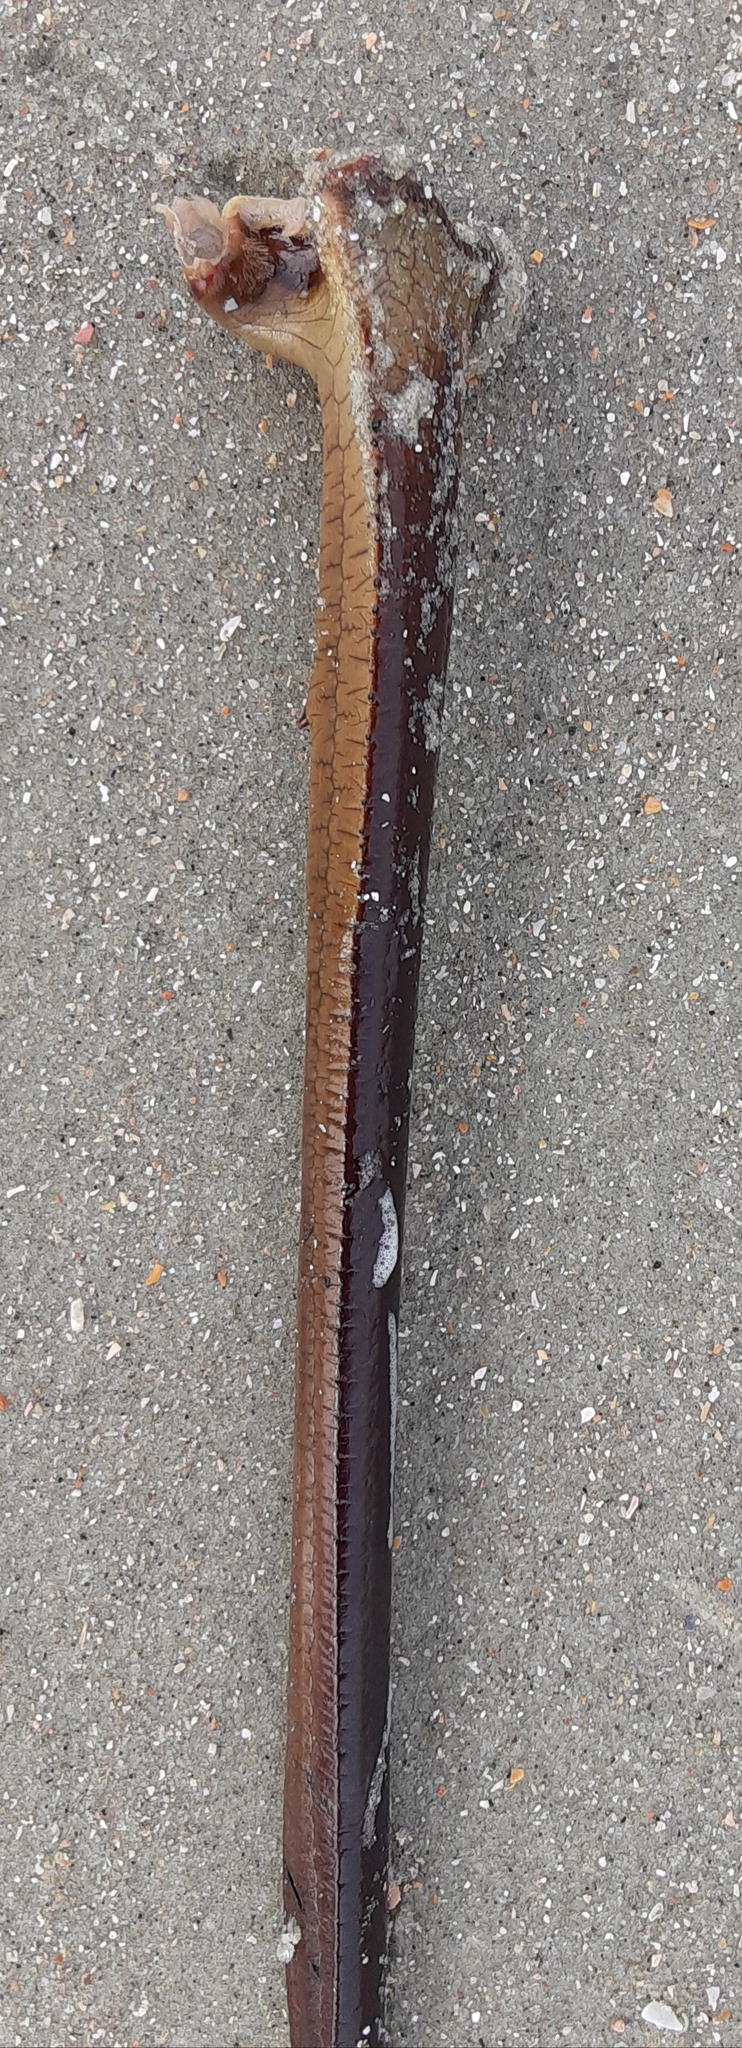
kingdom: Animalia
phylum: Arthropoda
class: Merostomata
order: Xiphosurida
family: Limulidae
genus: Limulus
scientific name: Limulus polyphemus
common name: Horseshoe crab
